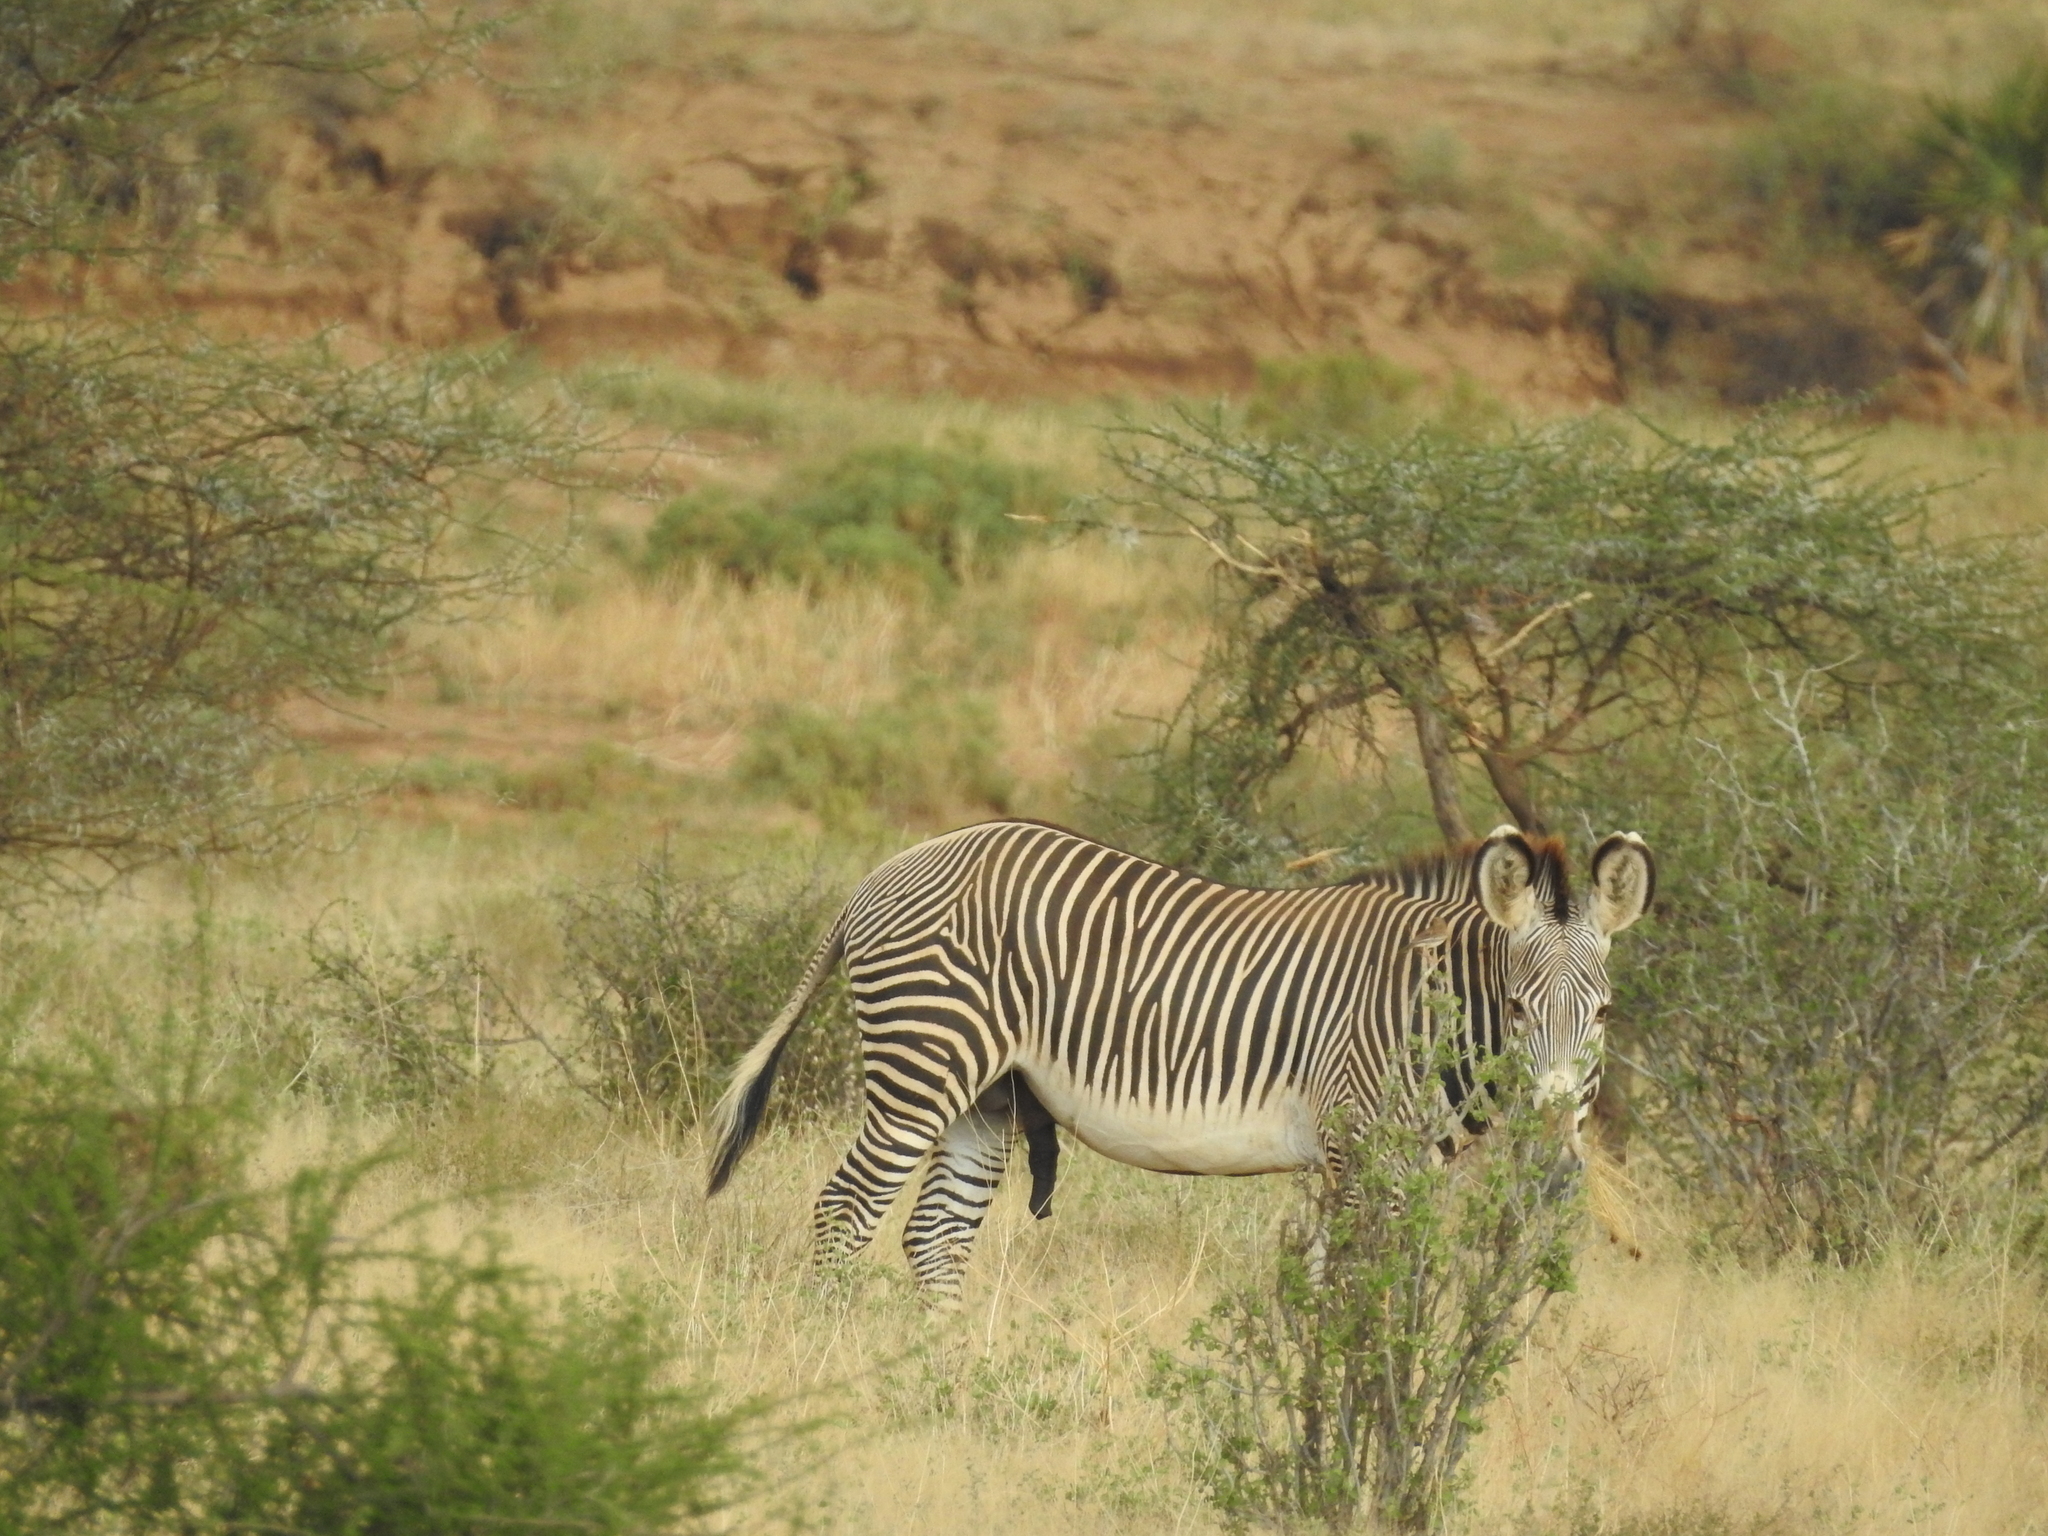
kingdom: Animalia
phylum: Chordata
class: Mammalia
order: Perissodactyla
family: Equidae
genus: Equus
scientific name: Equus grevyi
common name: Grevy's zebra
